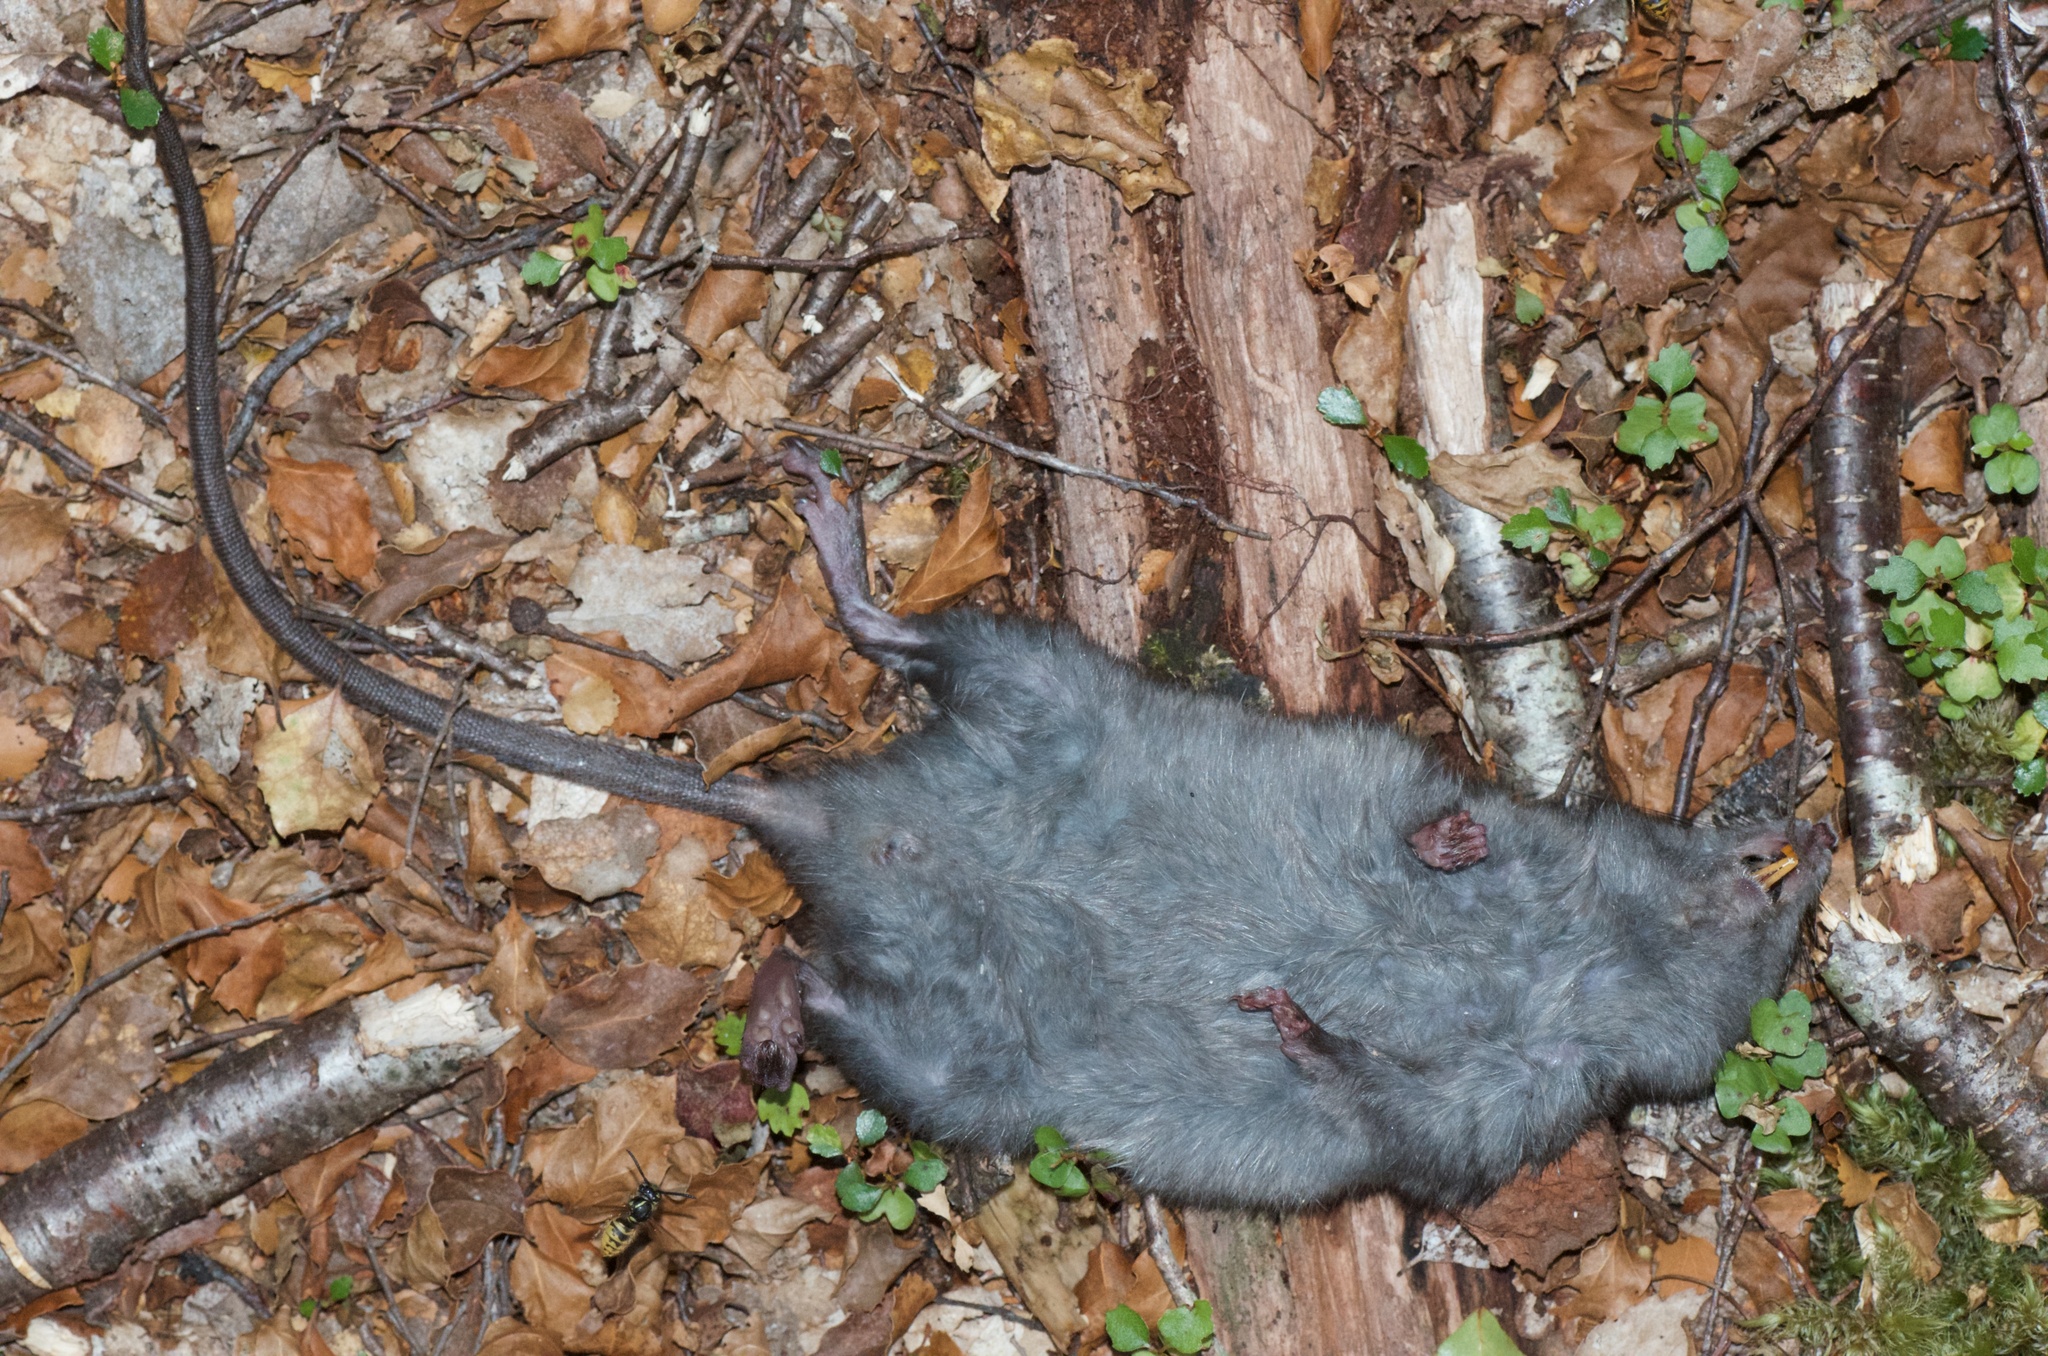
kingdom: Animalia
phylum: Chordata
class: Mammalia
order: Rodentia
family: Muridae
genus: Rattus
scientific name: Rattus rattus
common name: Black rat
